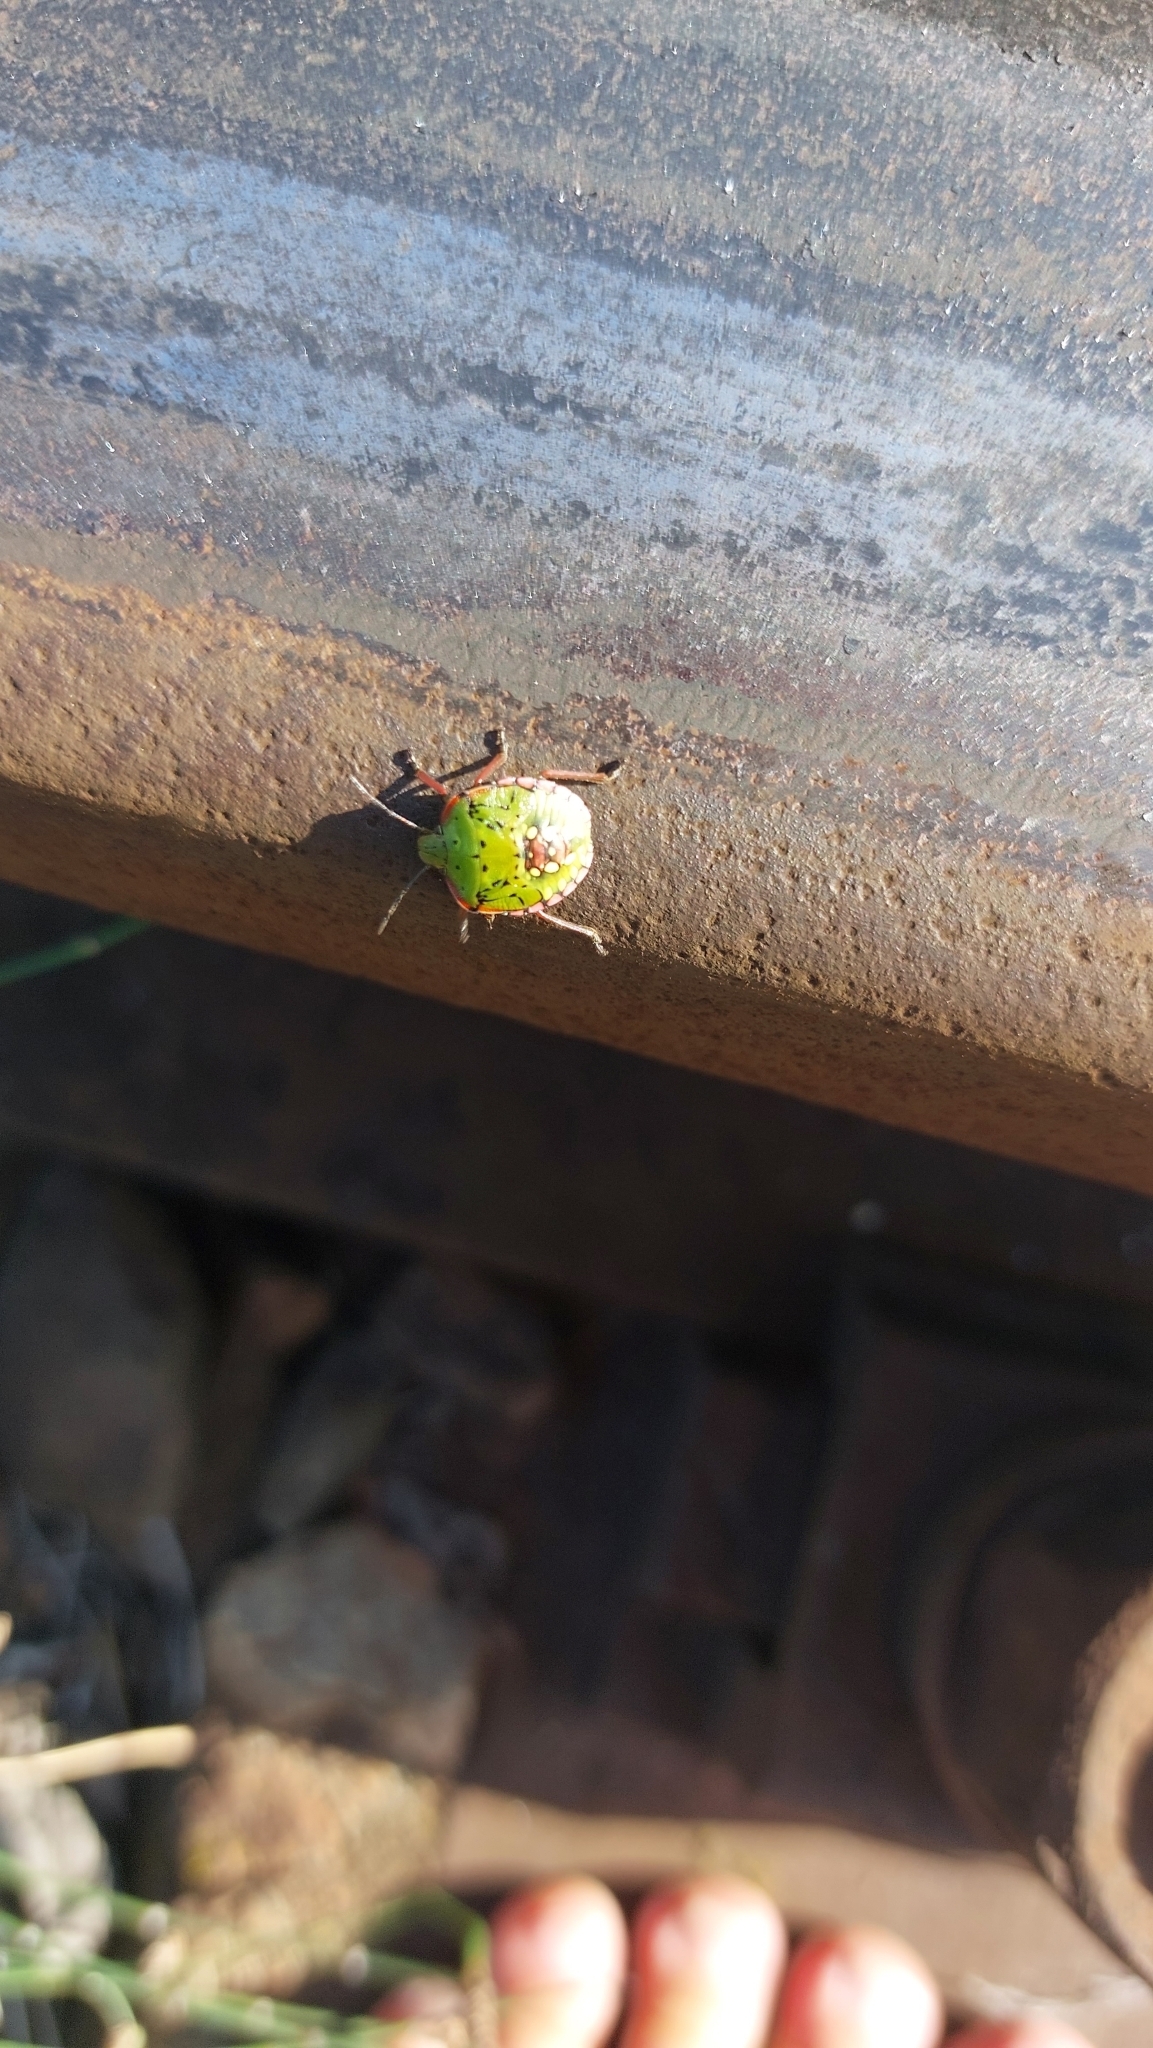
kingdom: Animalia
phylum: Arthropoda
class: Insecta
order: Hemiptera
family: Pentatomidae
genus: Nezara
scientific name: Nezara viridula
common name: Southern green stink bug
